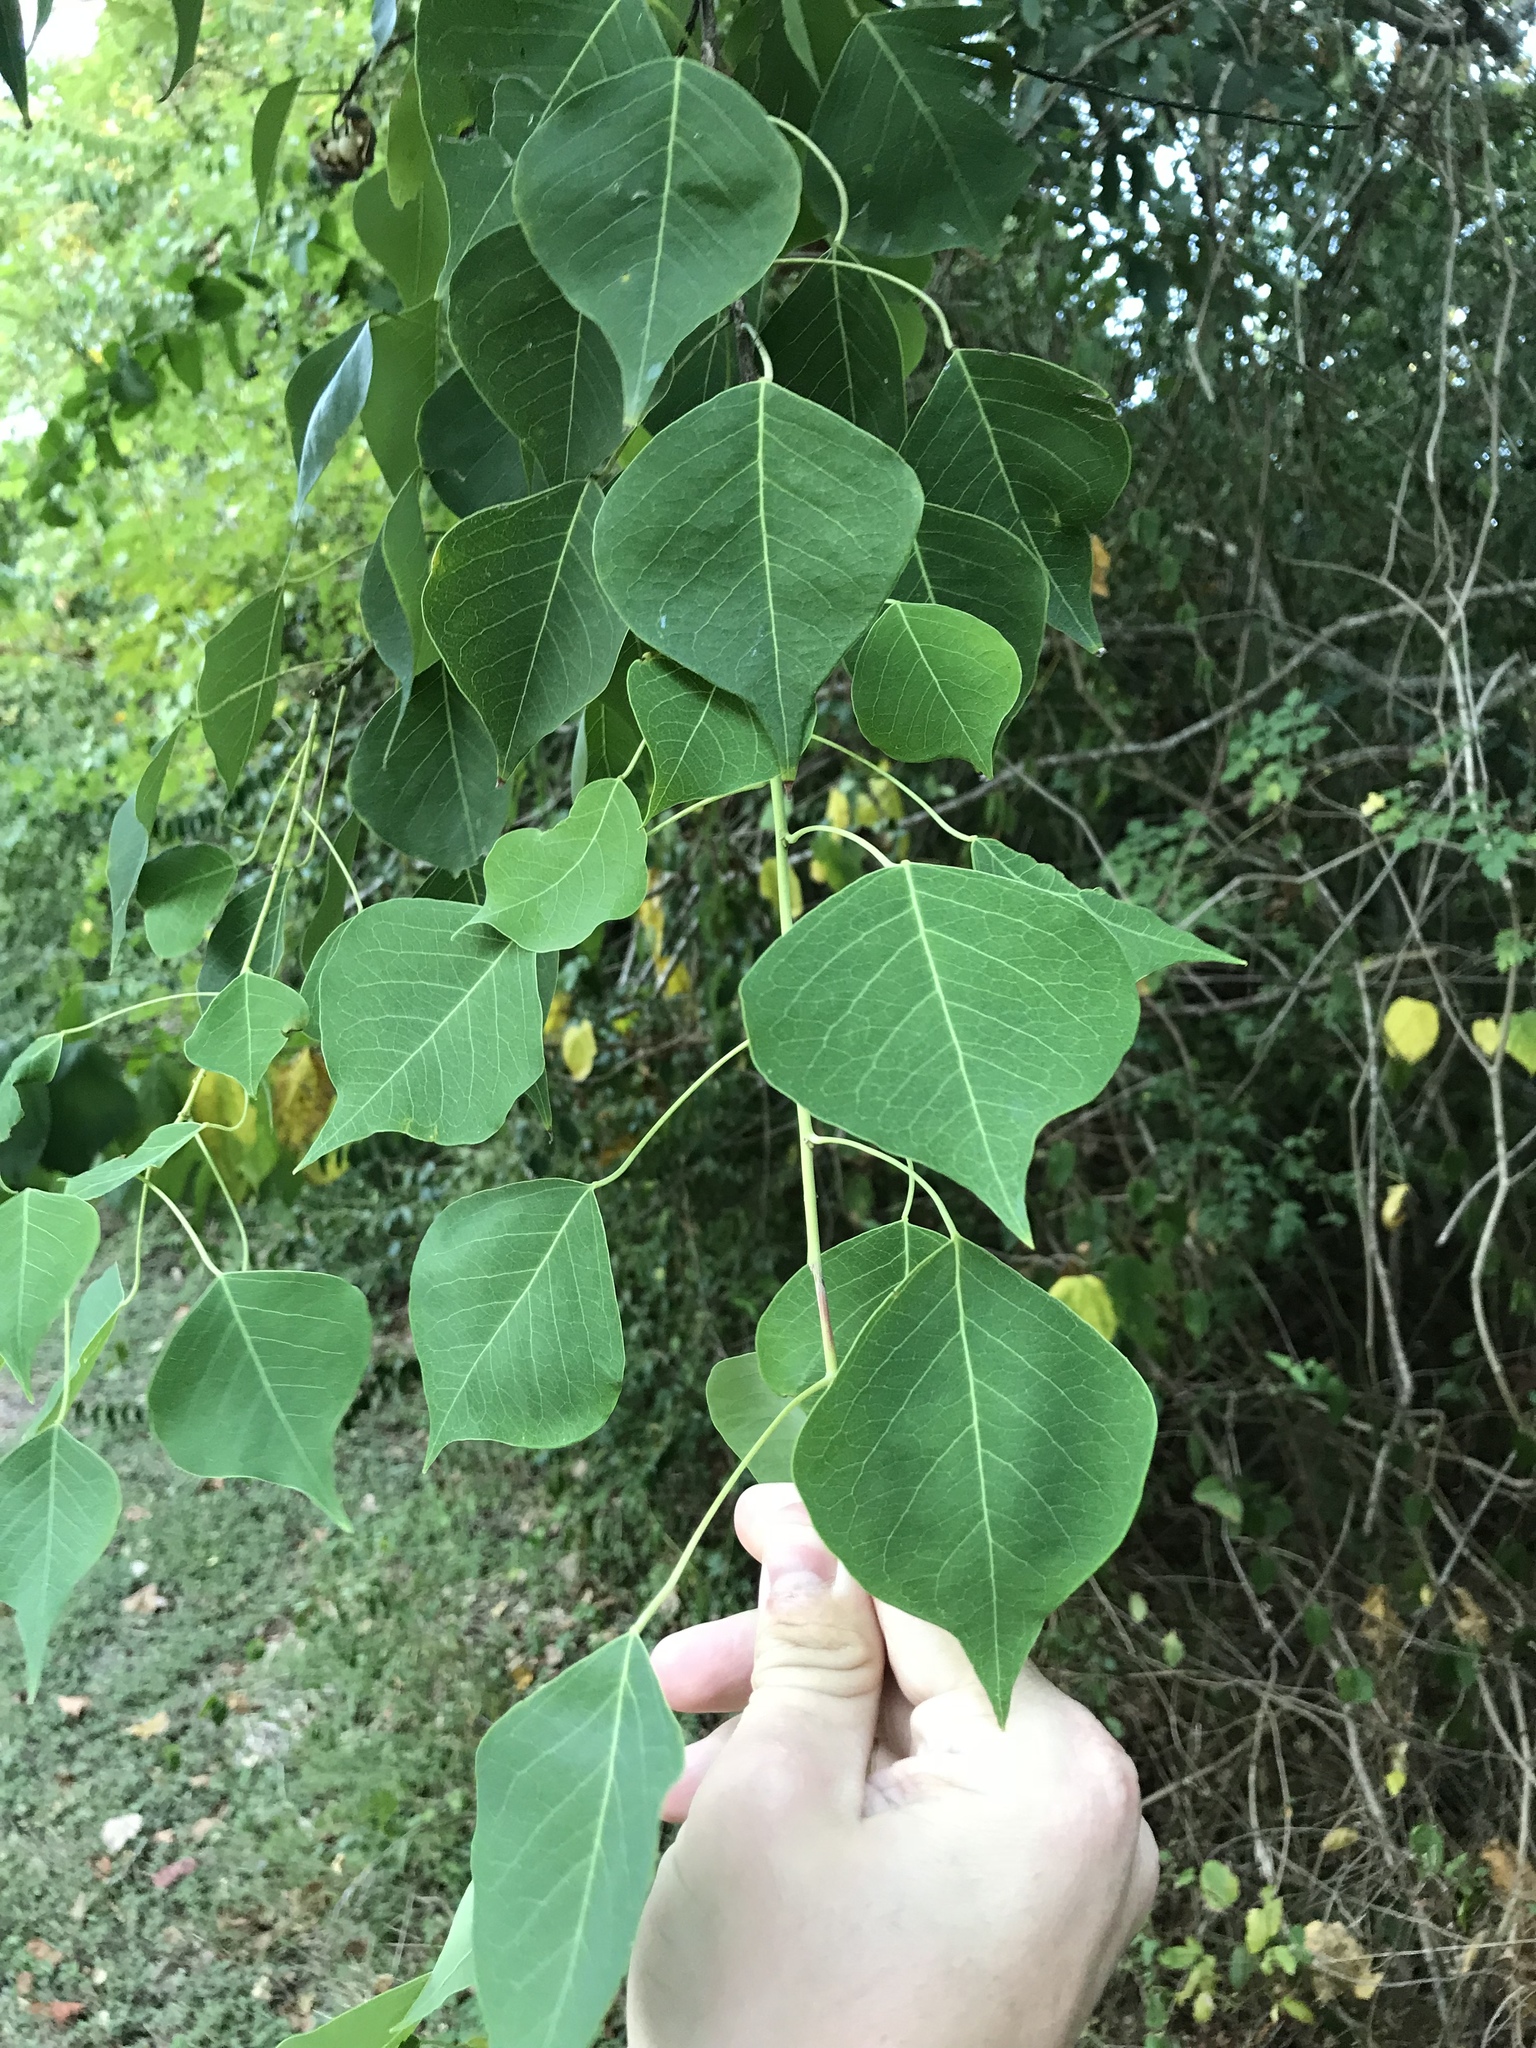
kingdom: Plantae
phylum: Tracheophyta
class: Magnoliopsida
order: Malpighiales
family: Euphorbiaceae
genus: Triadica
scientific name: Triadica sebifera
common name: Chinese tallow
